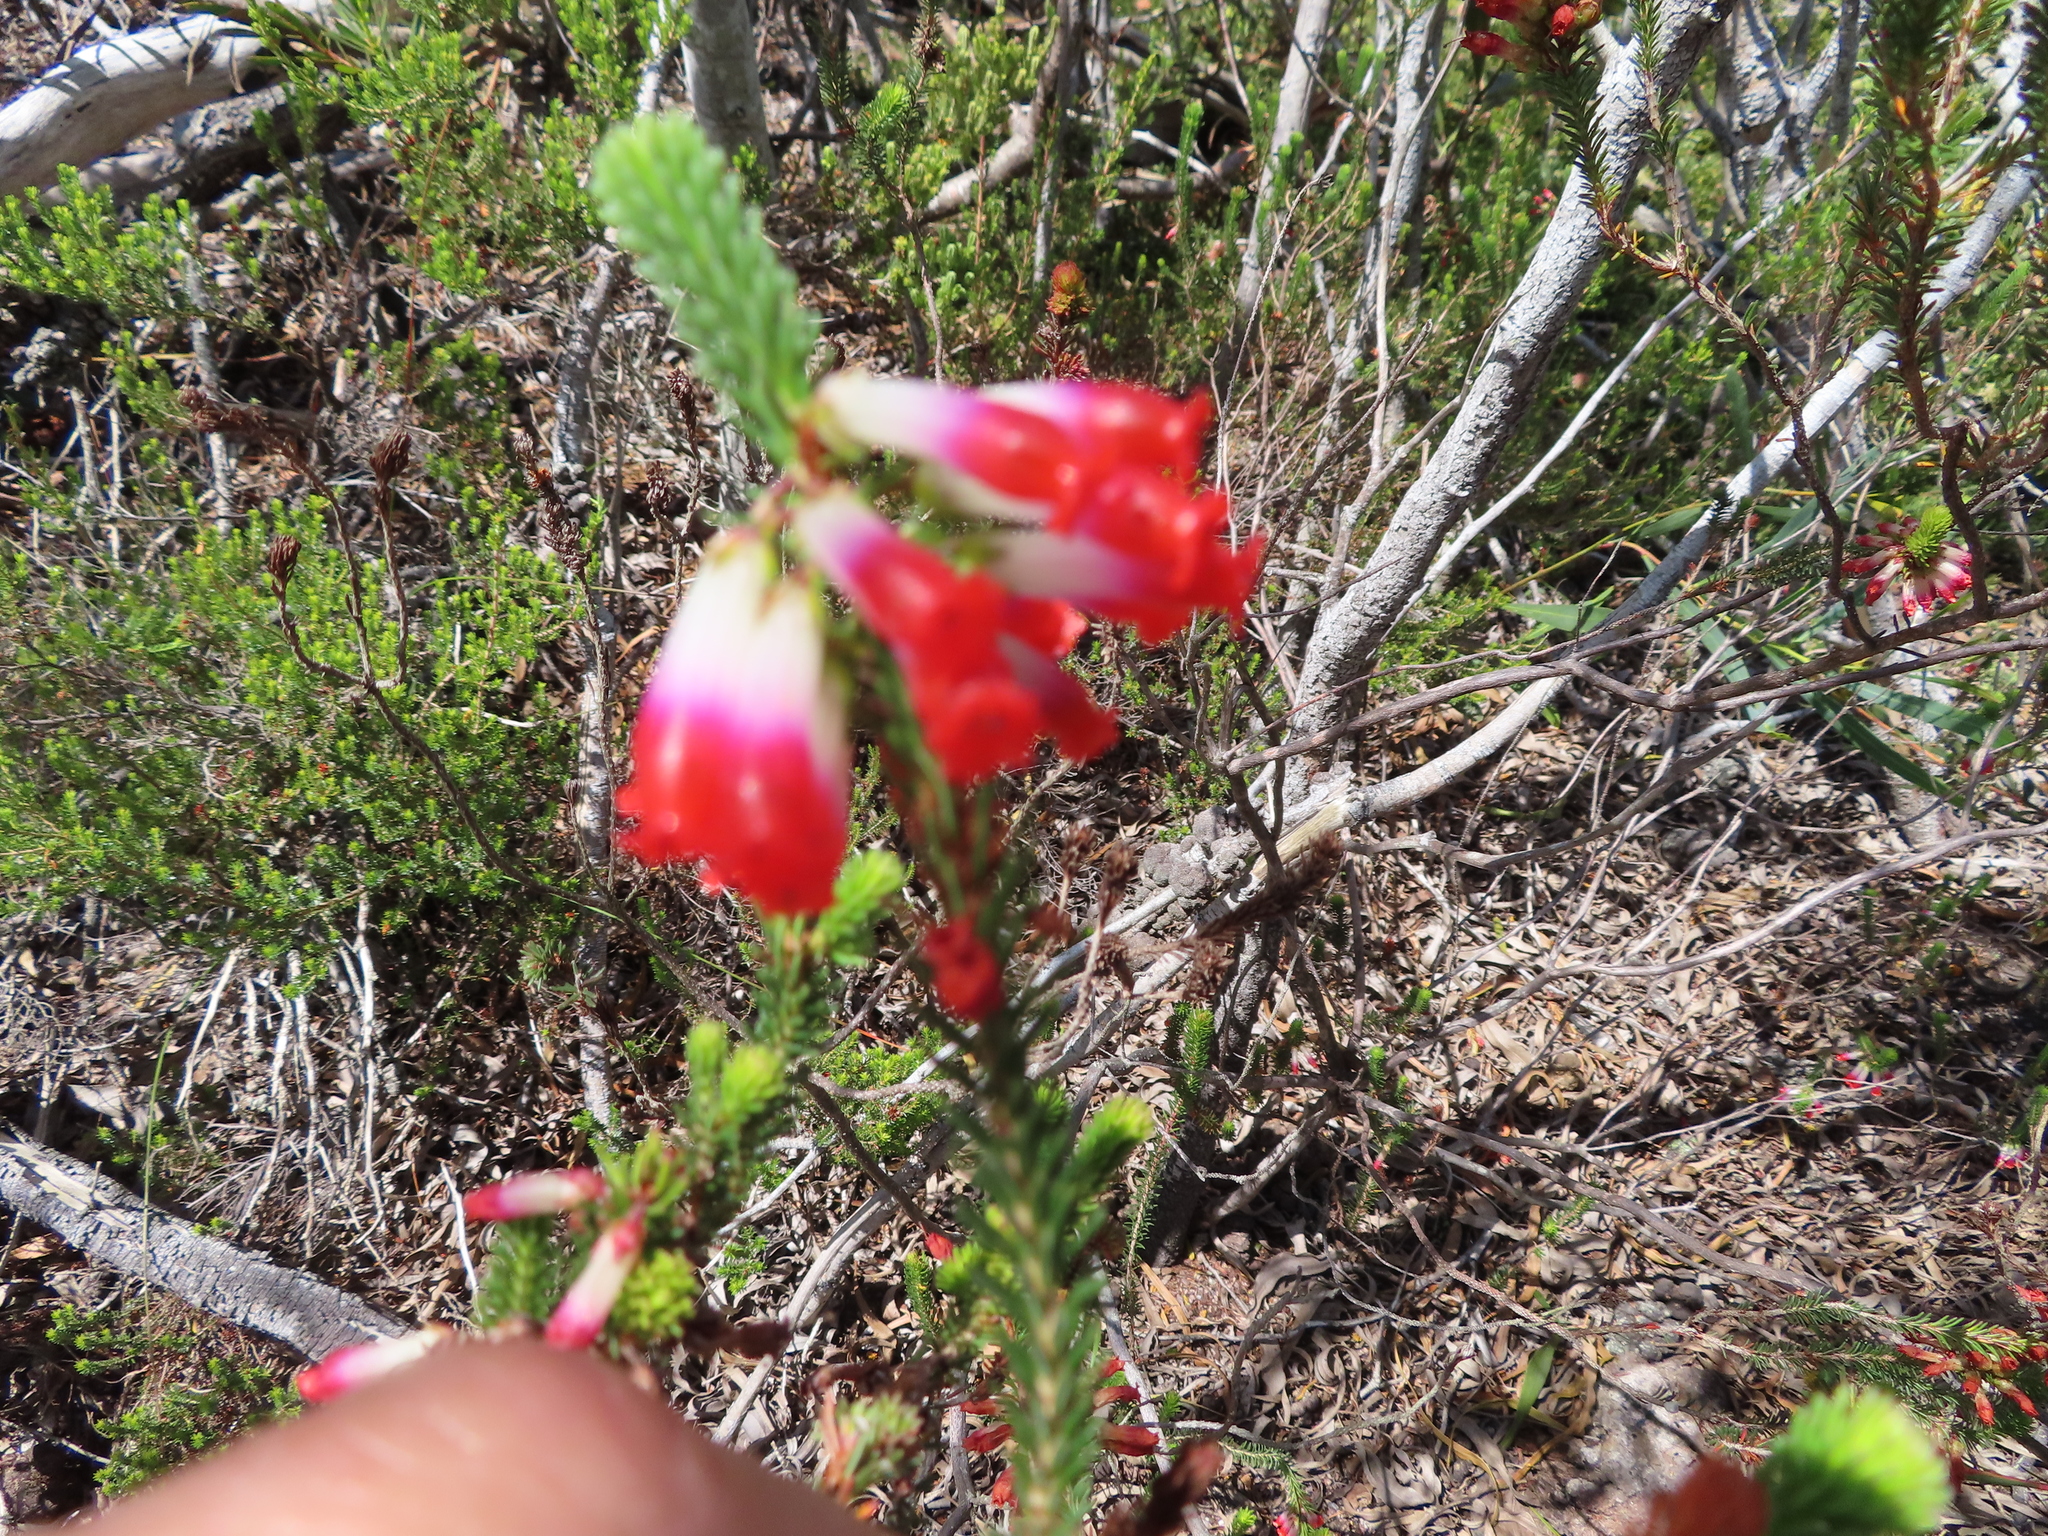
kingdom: Plantae
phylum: Tracheophyta
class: Magnoliopsida
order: Ericales
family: Ericaceae
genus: Erica
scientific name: Erica regia
